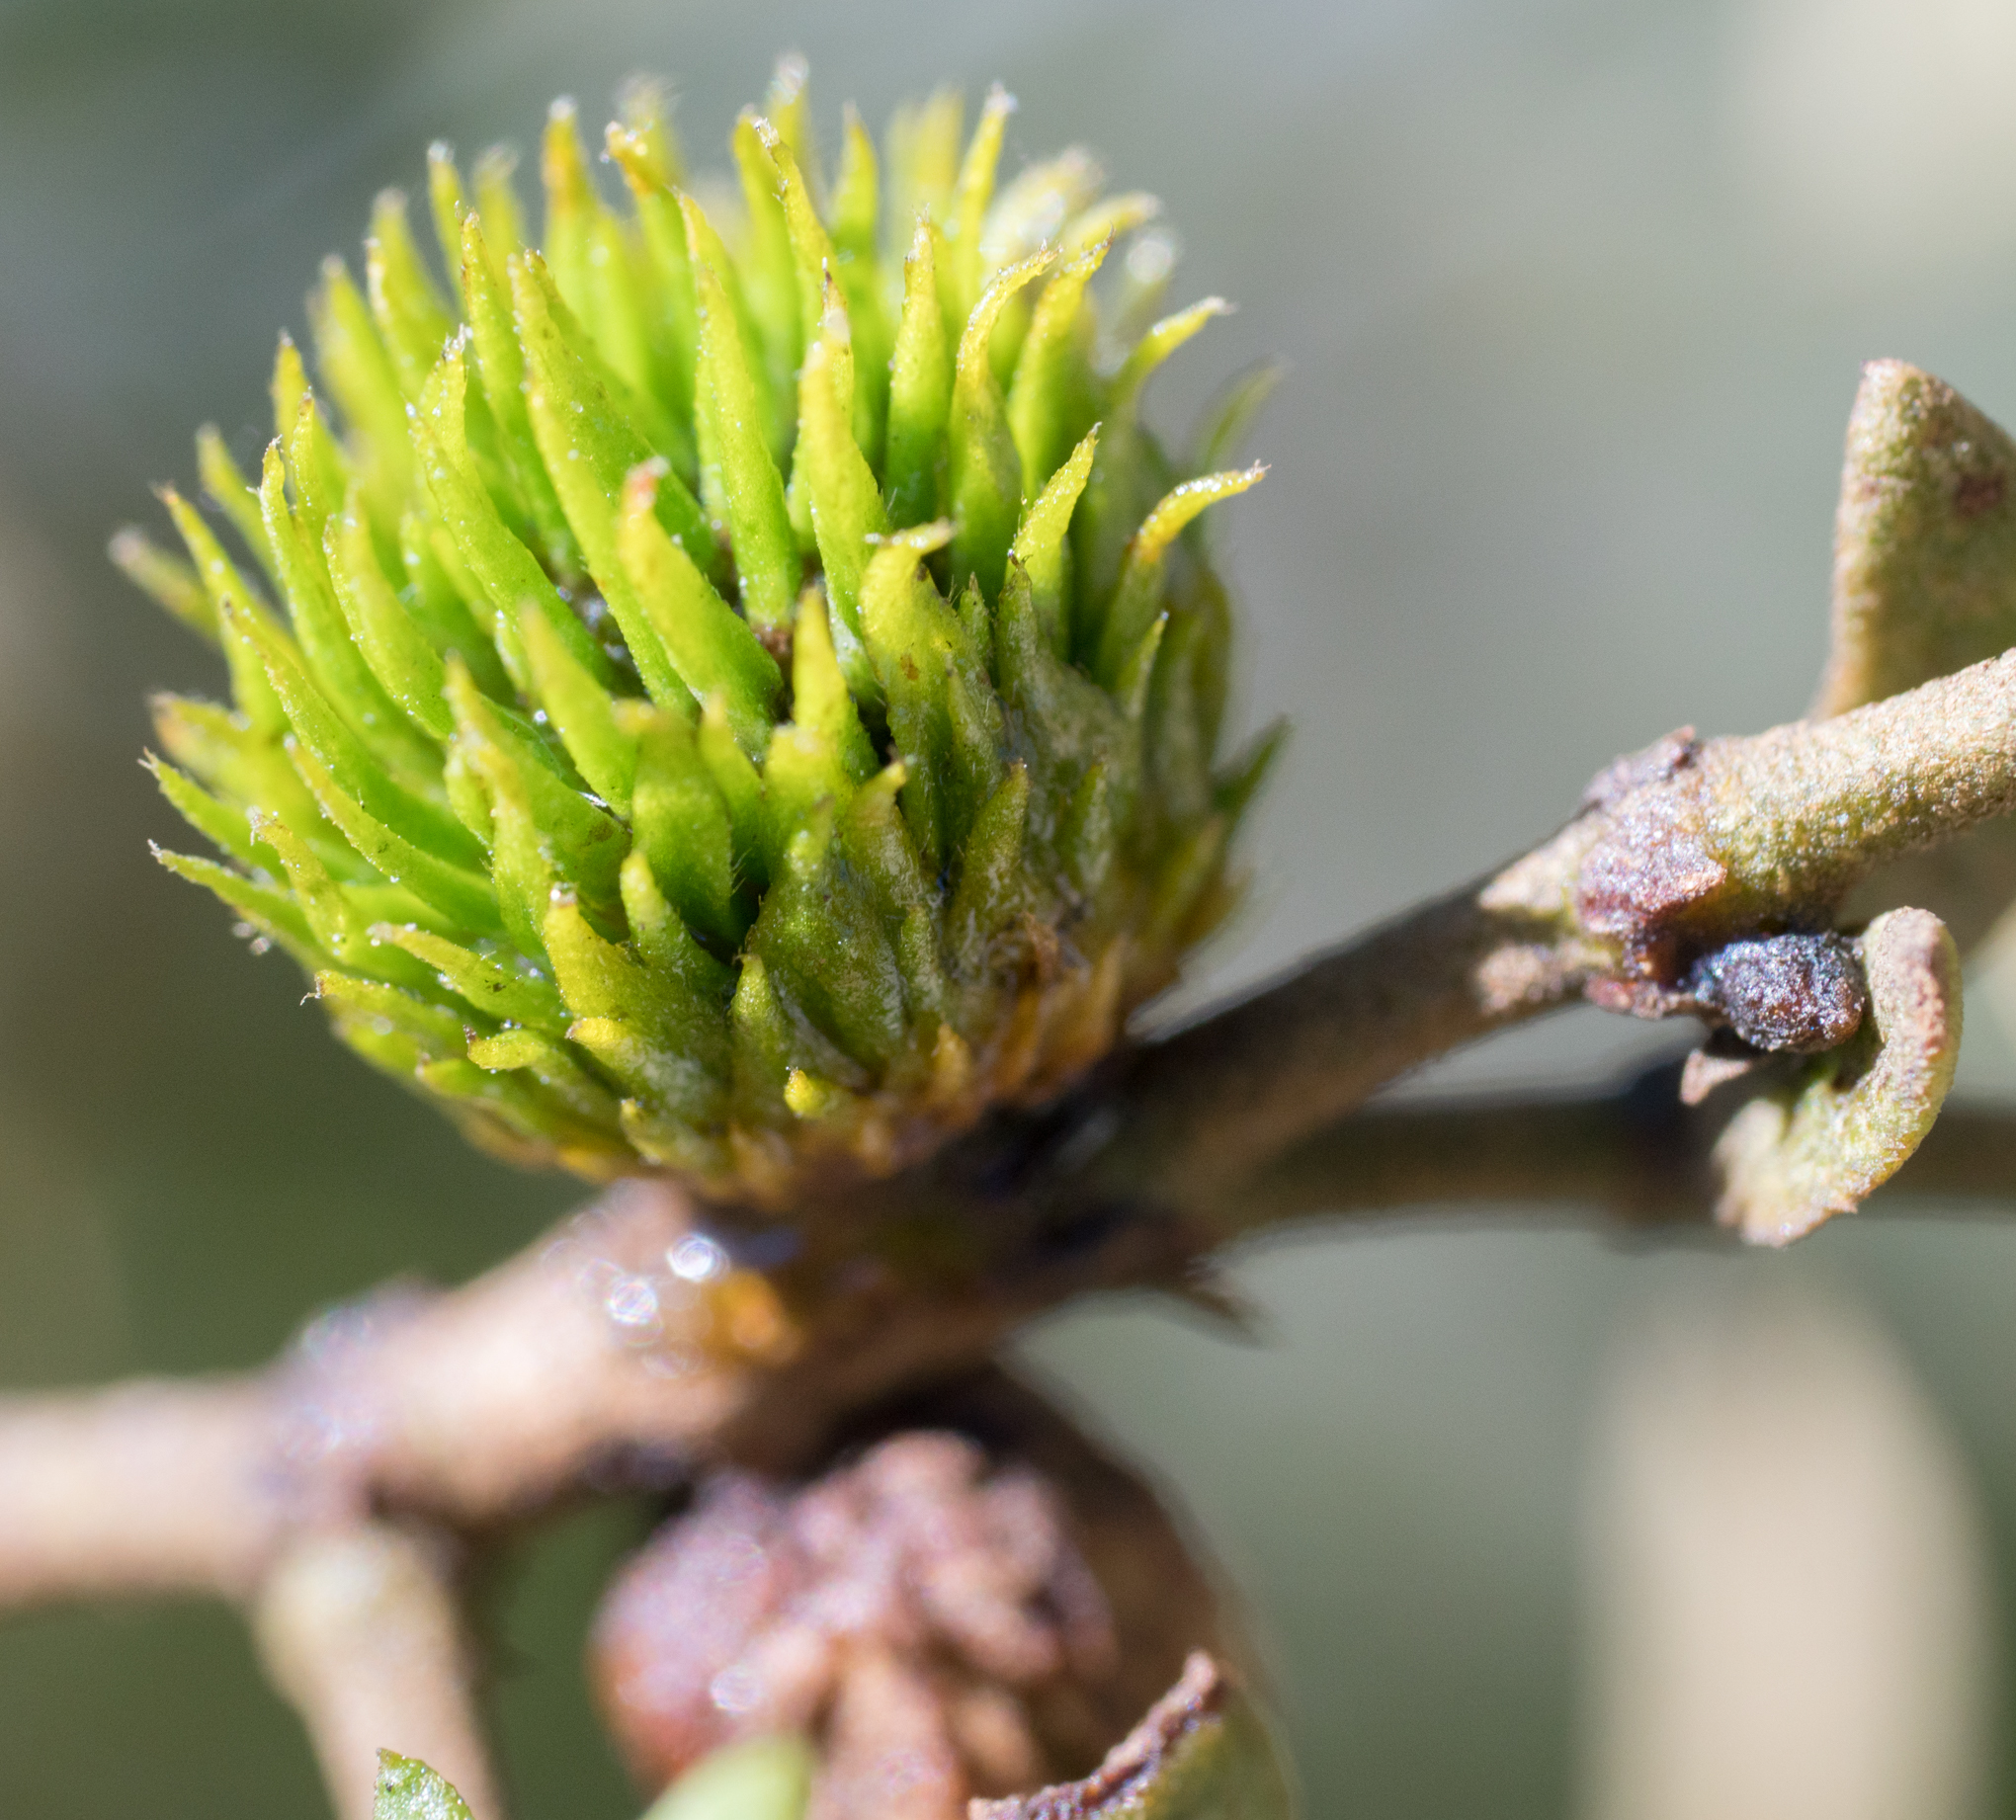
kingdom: Animalia
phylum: Arthropoda
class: Insecta
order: Diptera
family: Cecidomyiidae
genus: Asphondylia
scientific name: Asphondylia foliosa
